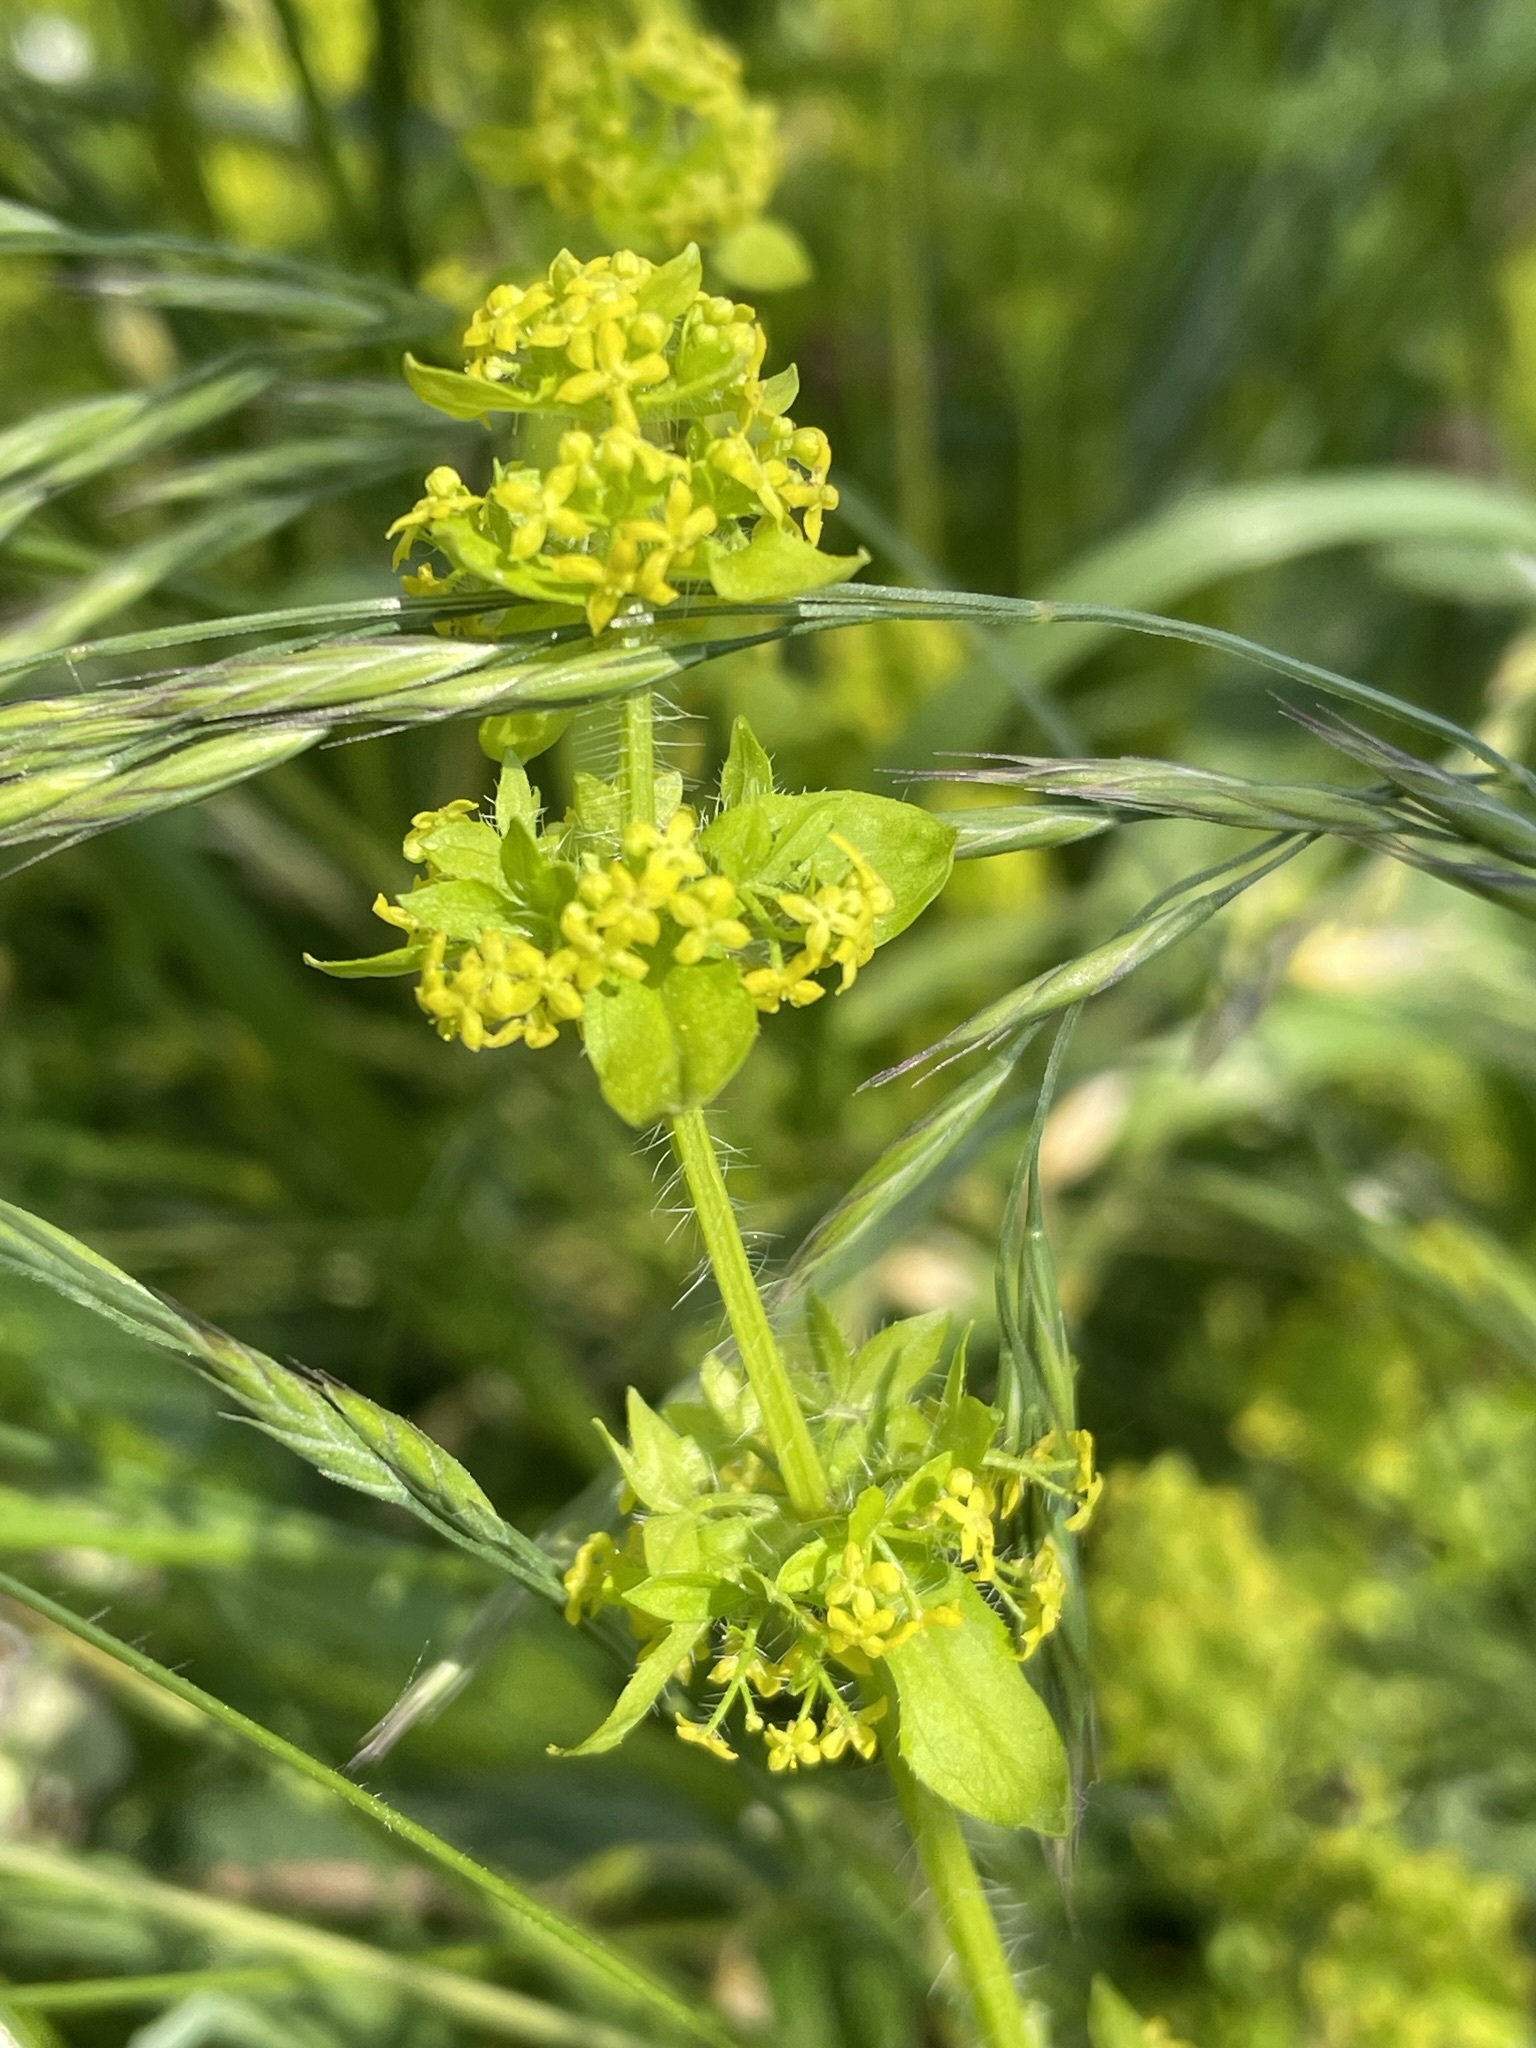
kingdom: Plantae
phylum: Tracheophyta
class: Magnoliopsida
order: Gentianales
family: Rubiaceae
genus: Cruciata
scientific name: Cruciata laevipes
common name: Crosswort
